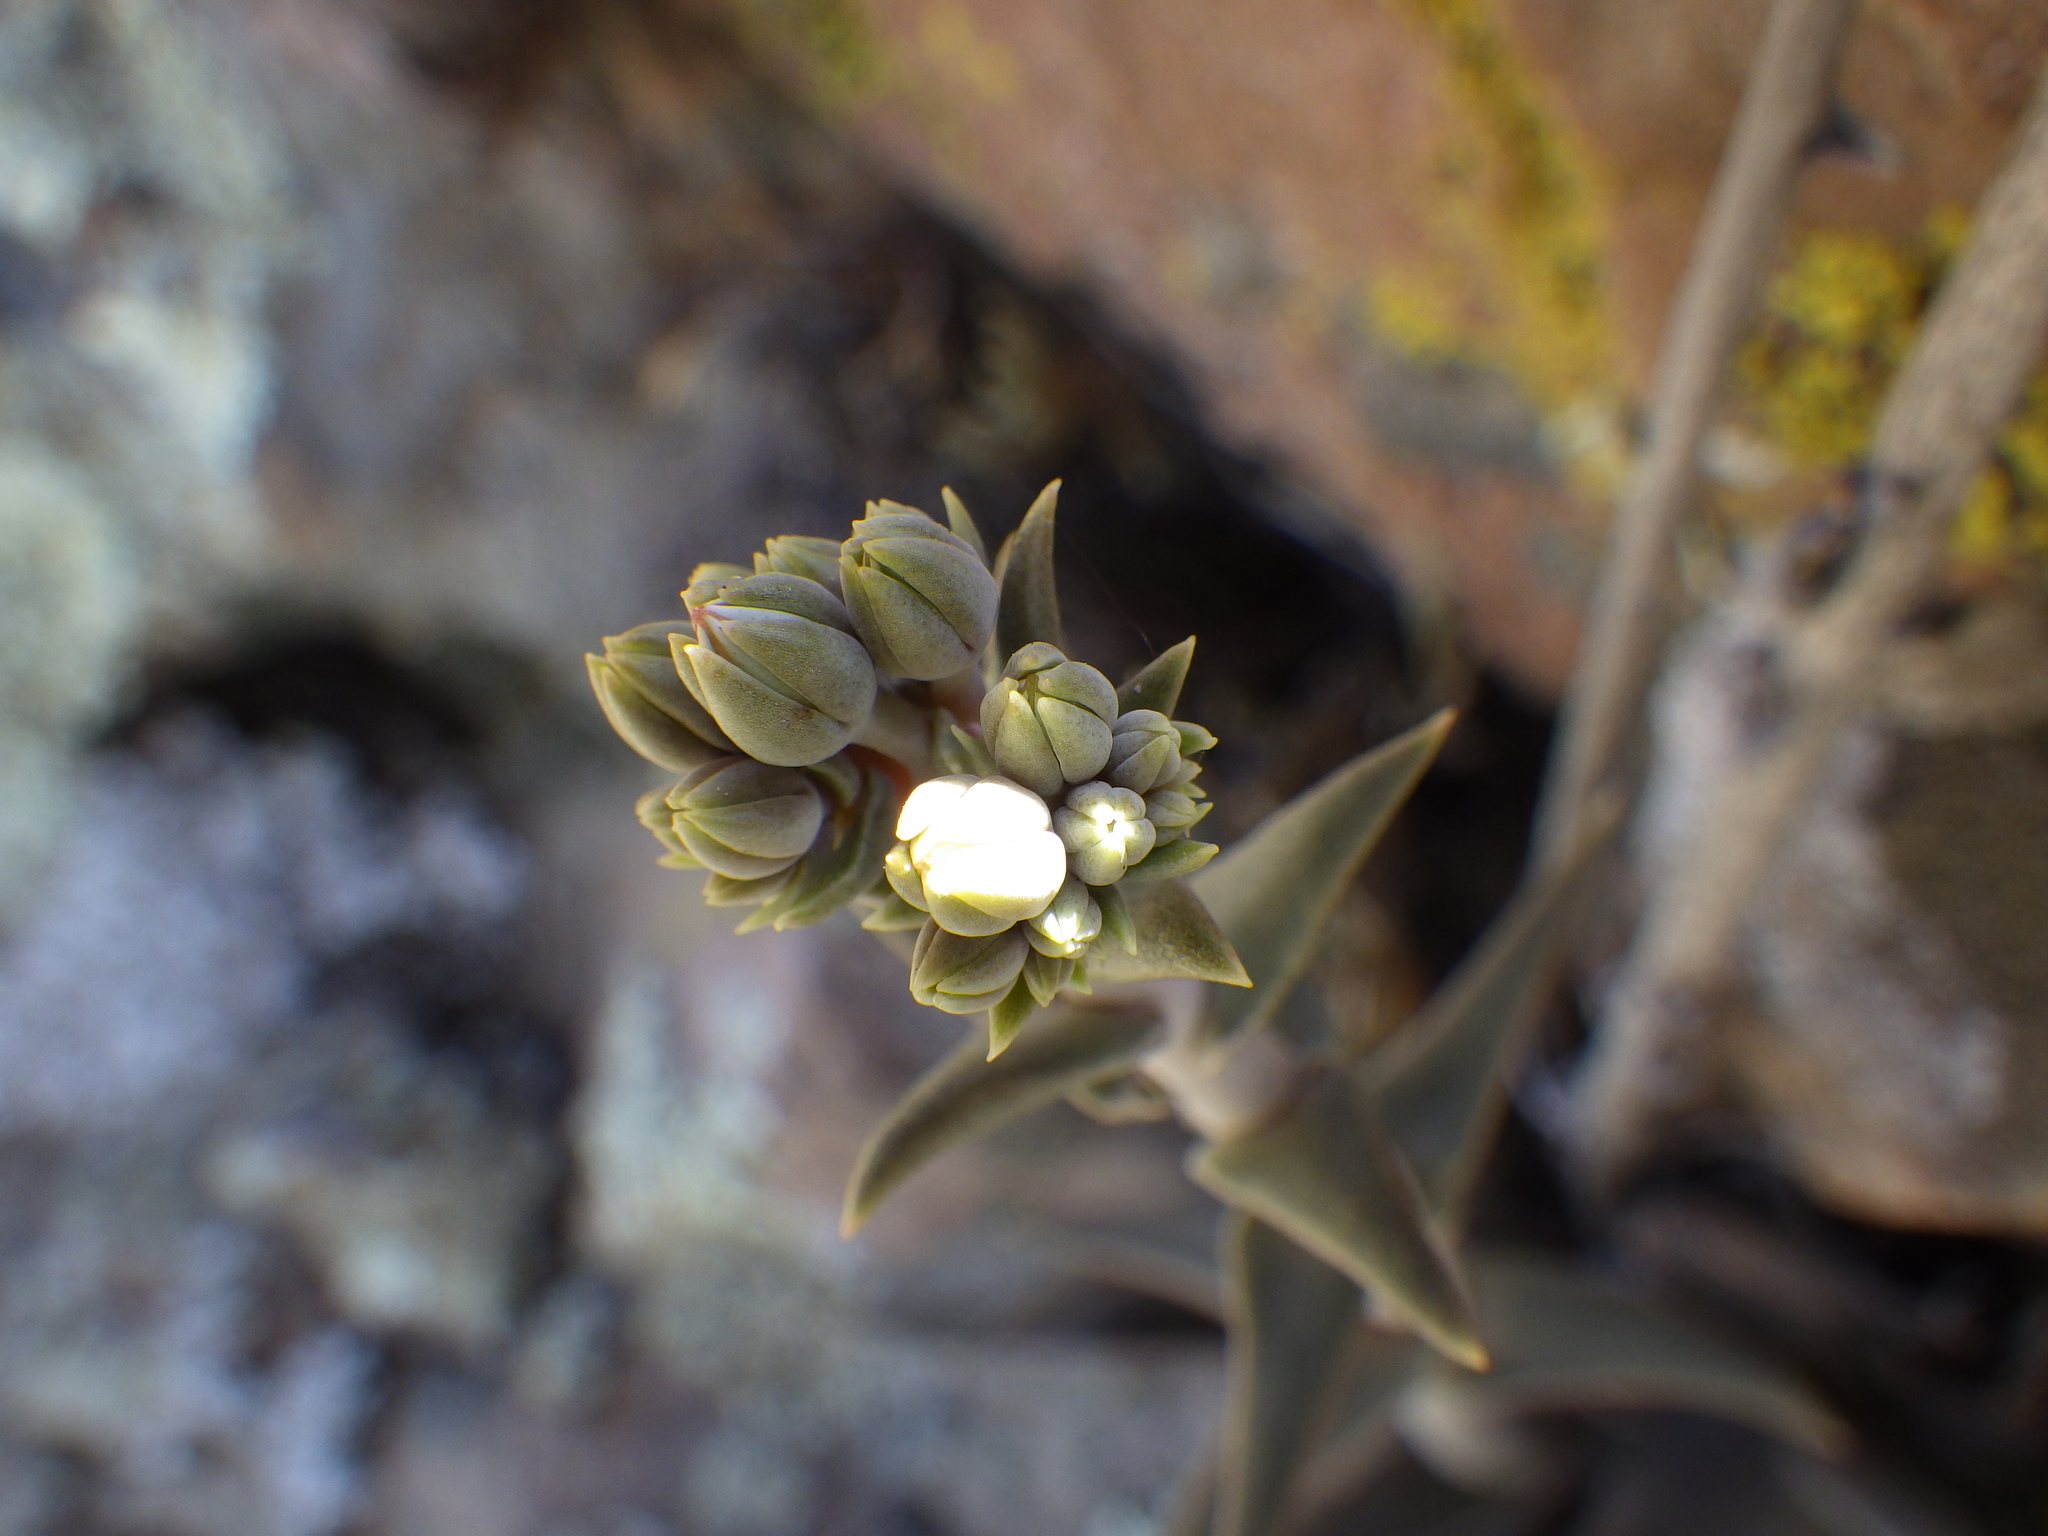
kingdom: Plantae
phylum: Tracheophyta
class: Magnoliopsida
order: Saxifragales
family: Crassulaceae
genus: Dudleya
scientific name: Dudleya lanceolata
